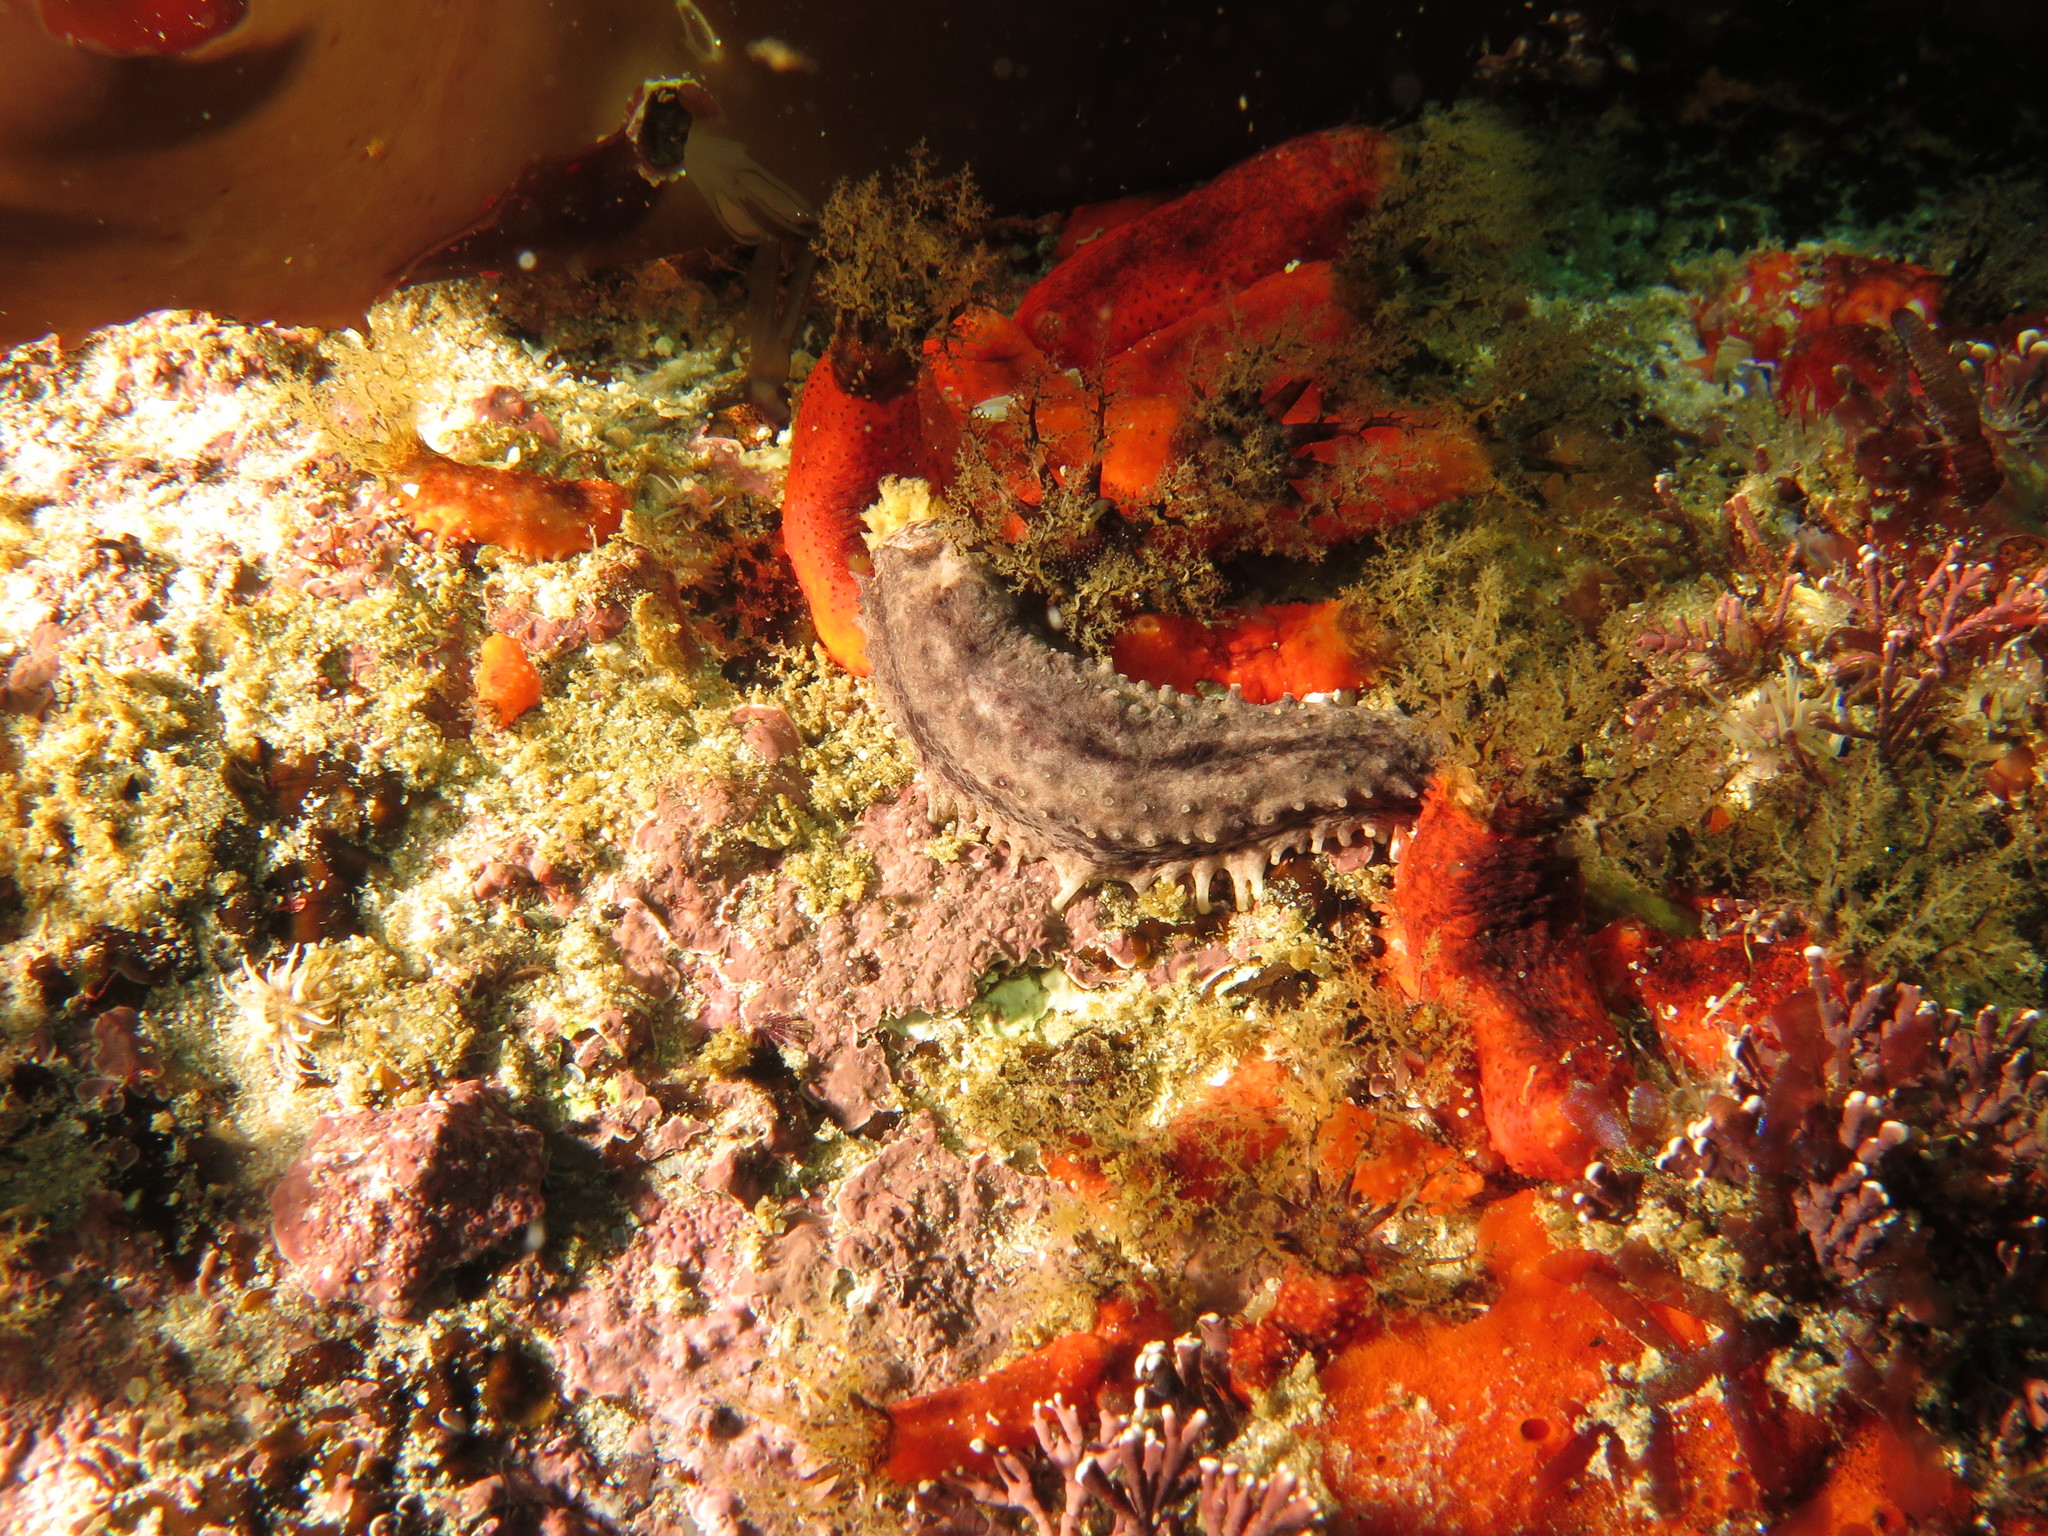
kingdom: Animalia
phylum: Echinodermata
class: Holothuroidea
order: Dendrochirotida
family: Cucumariidae
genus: Pentacta
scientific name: Pentacta doliolum
